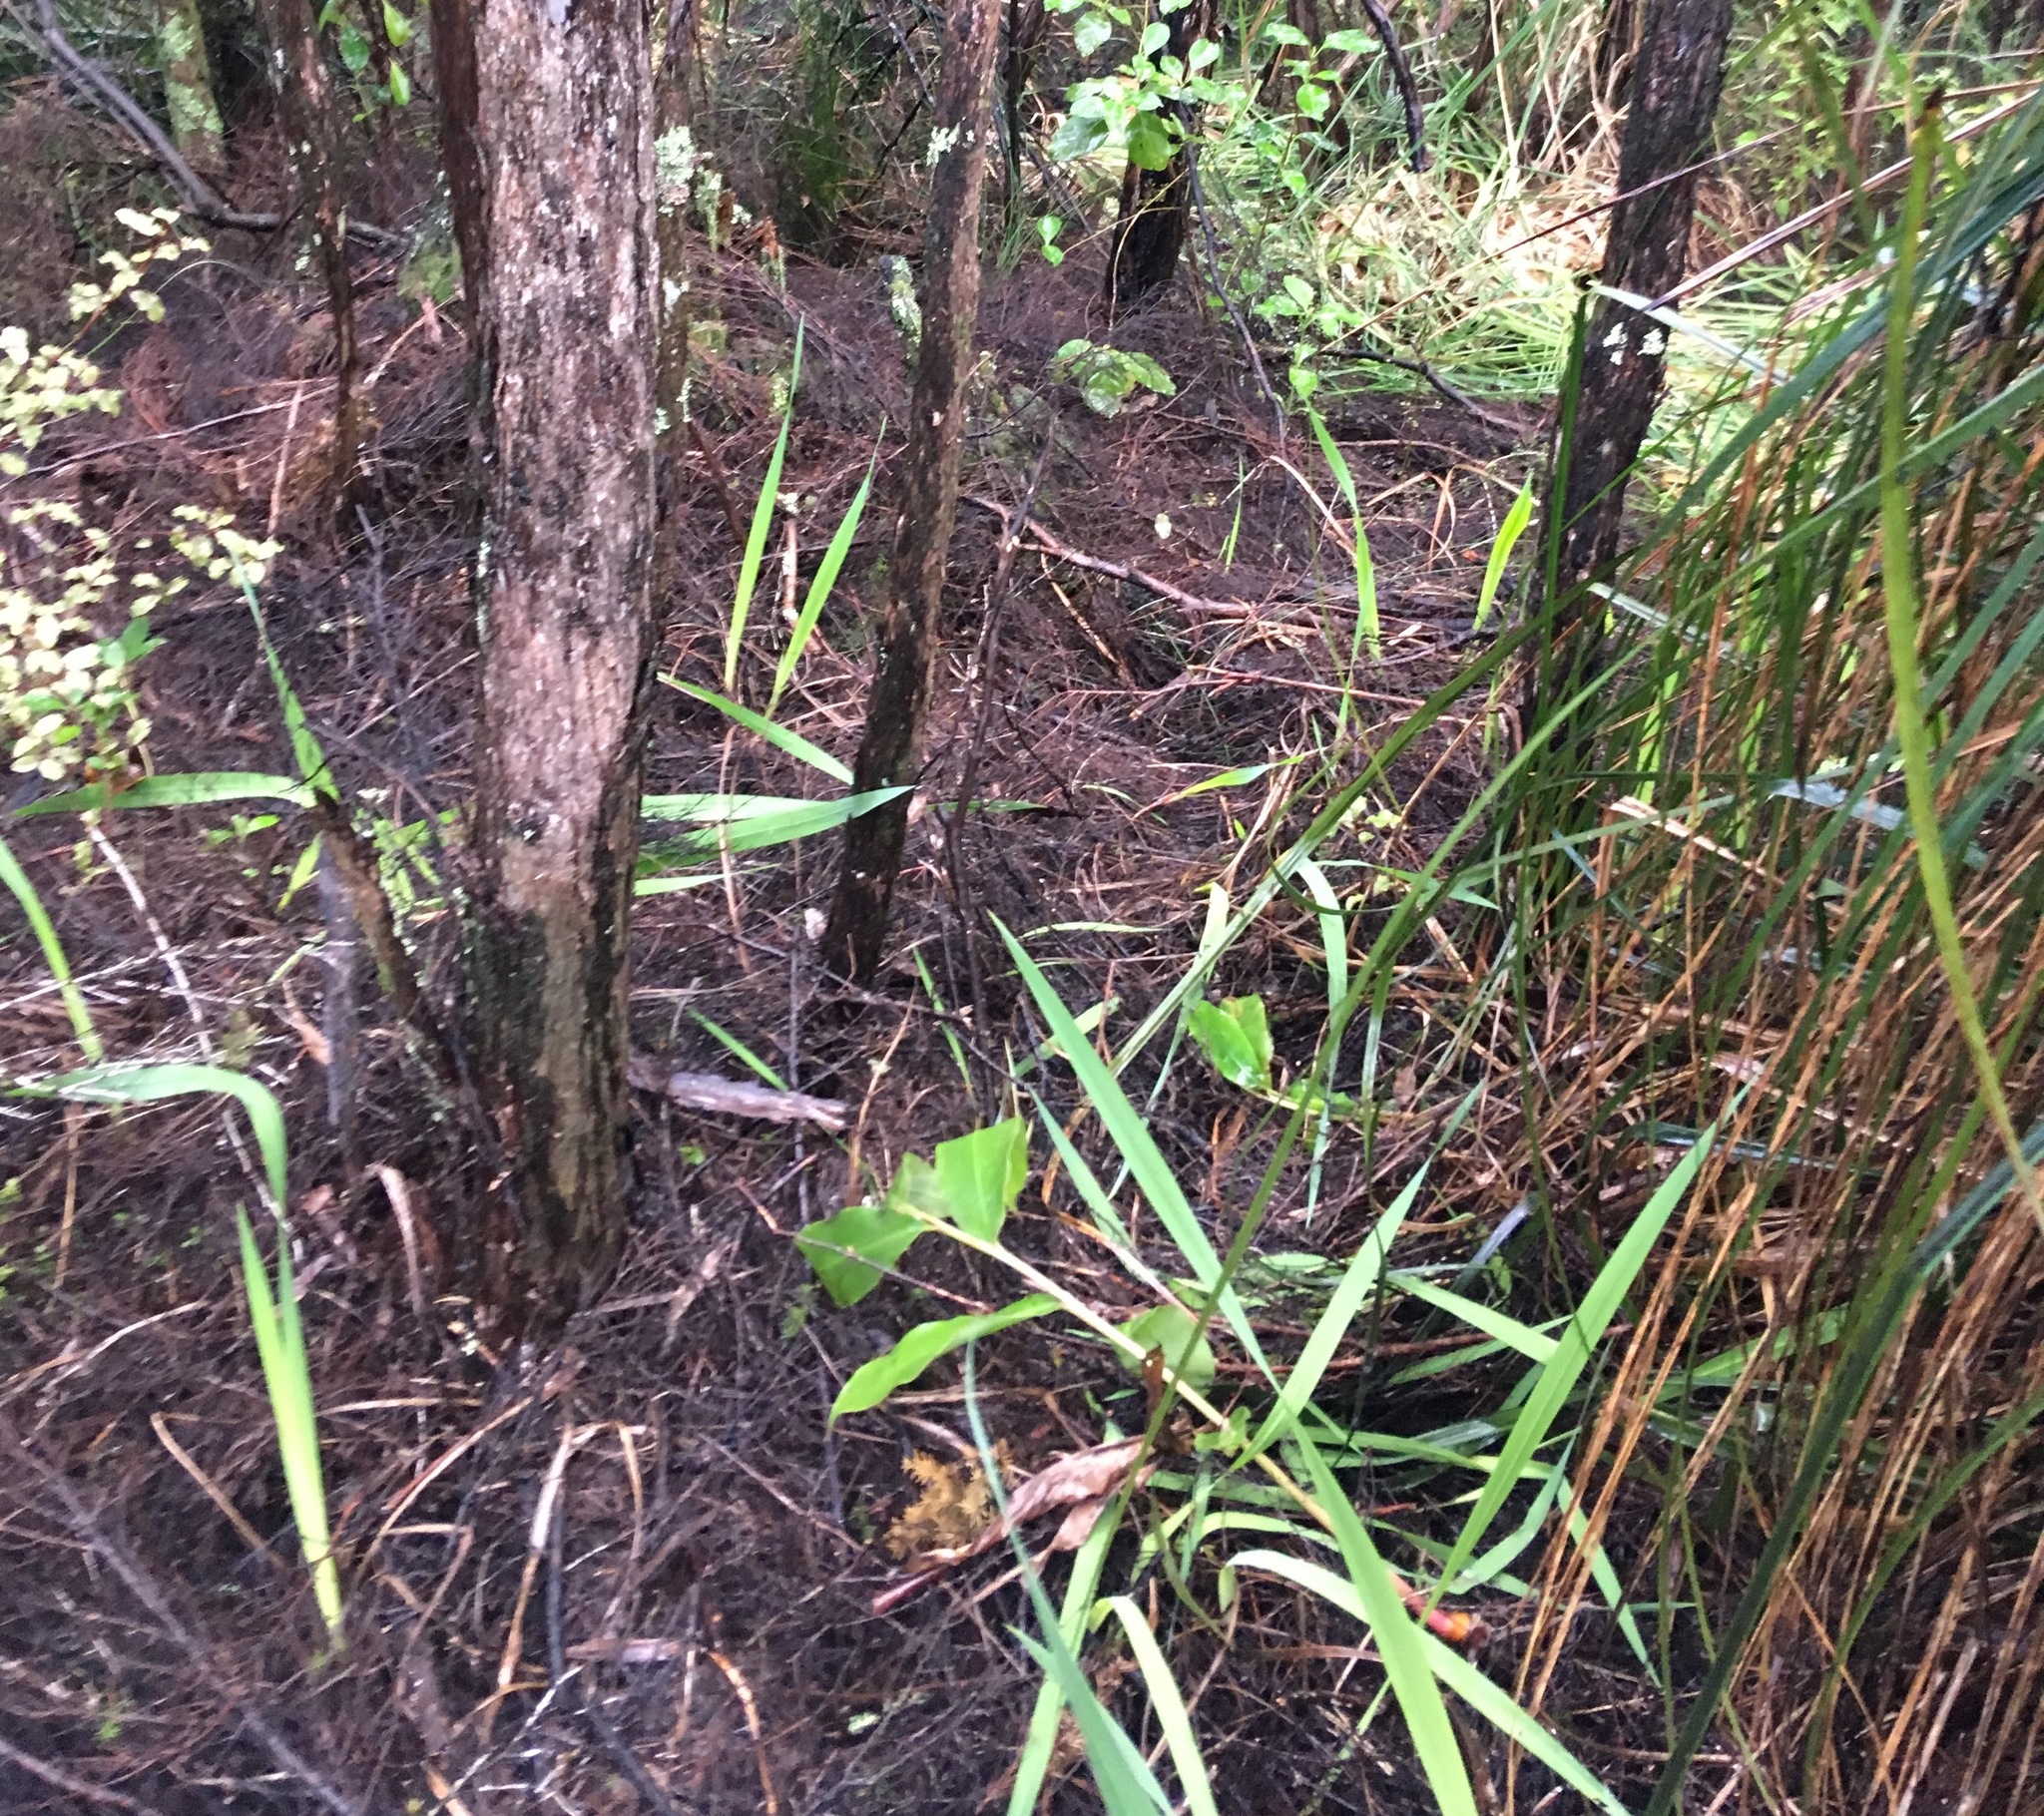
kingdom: Plantae
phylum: Tracheophyta
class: Liliopsida
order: Zingiberales
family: Zingiberaceae
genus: Hedychium
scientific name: Hedychium gardnerianum
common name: Himalayan ginger
